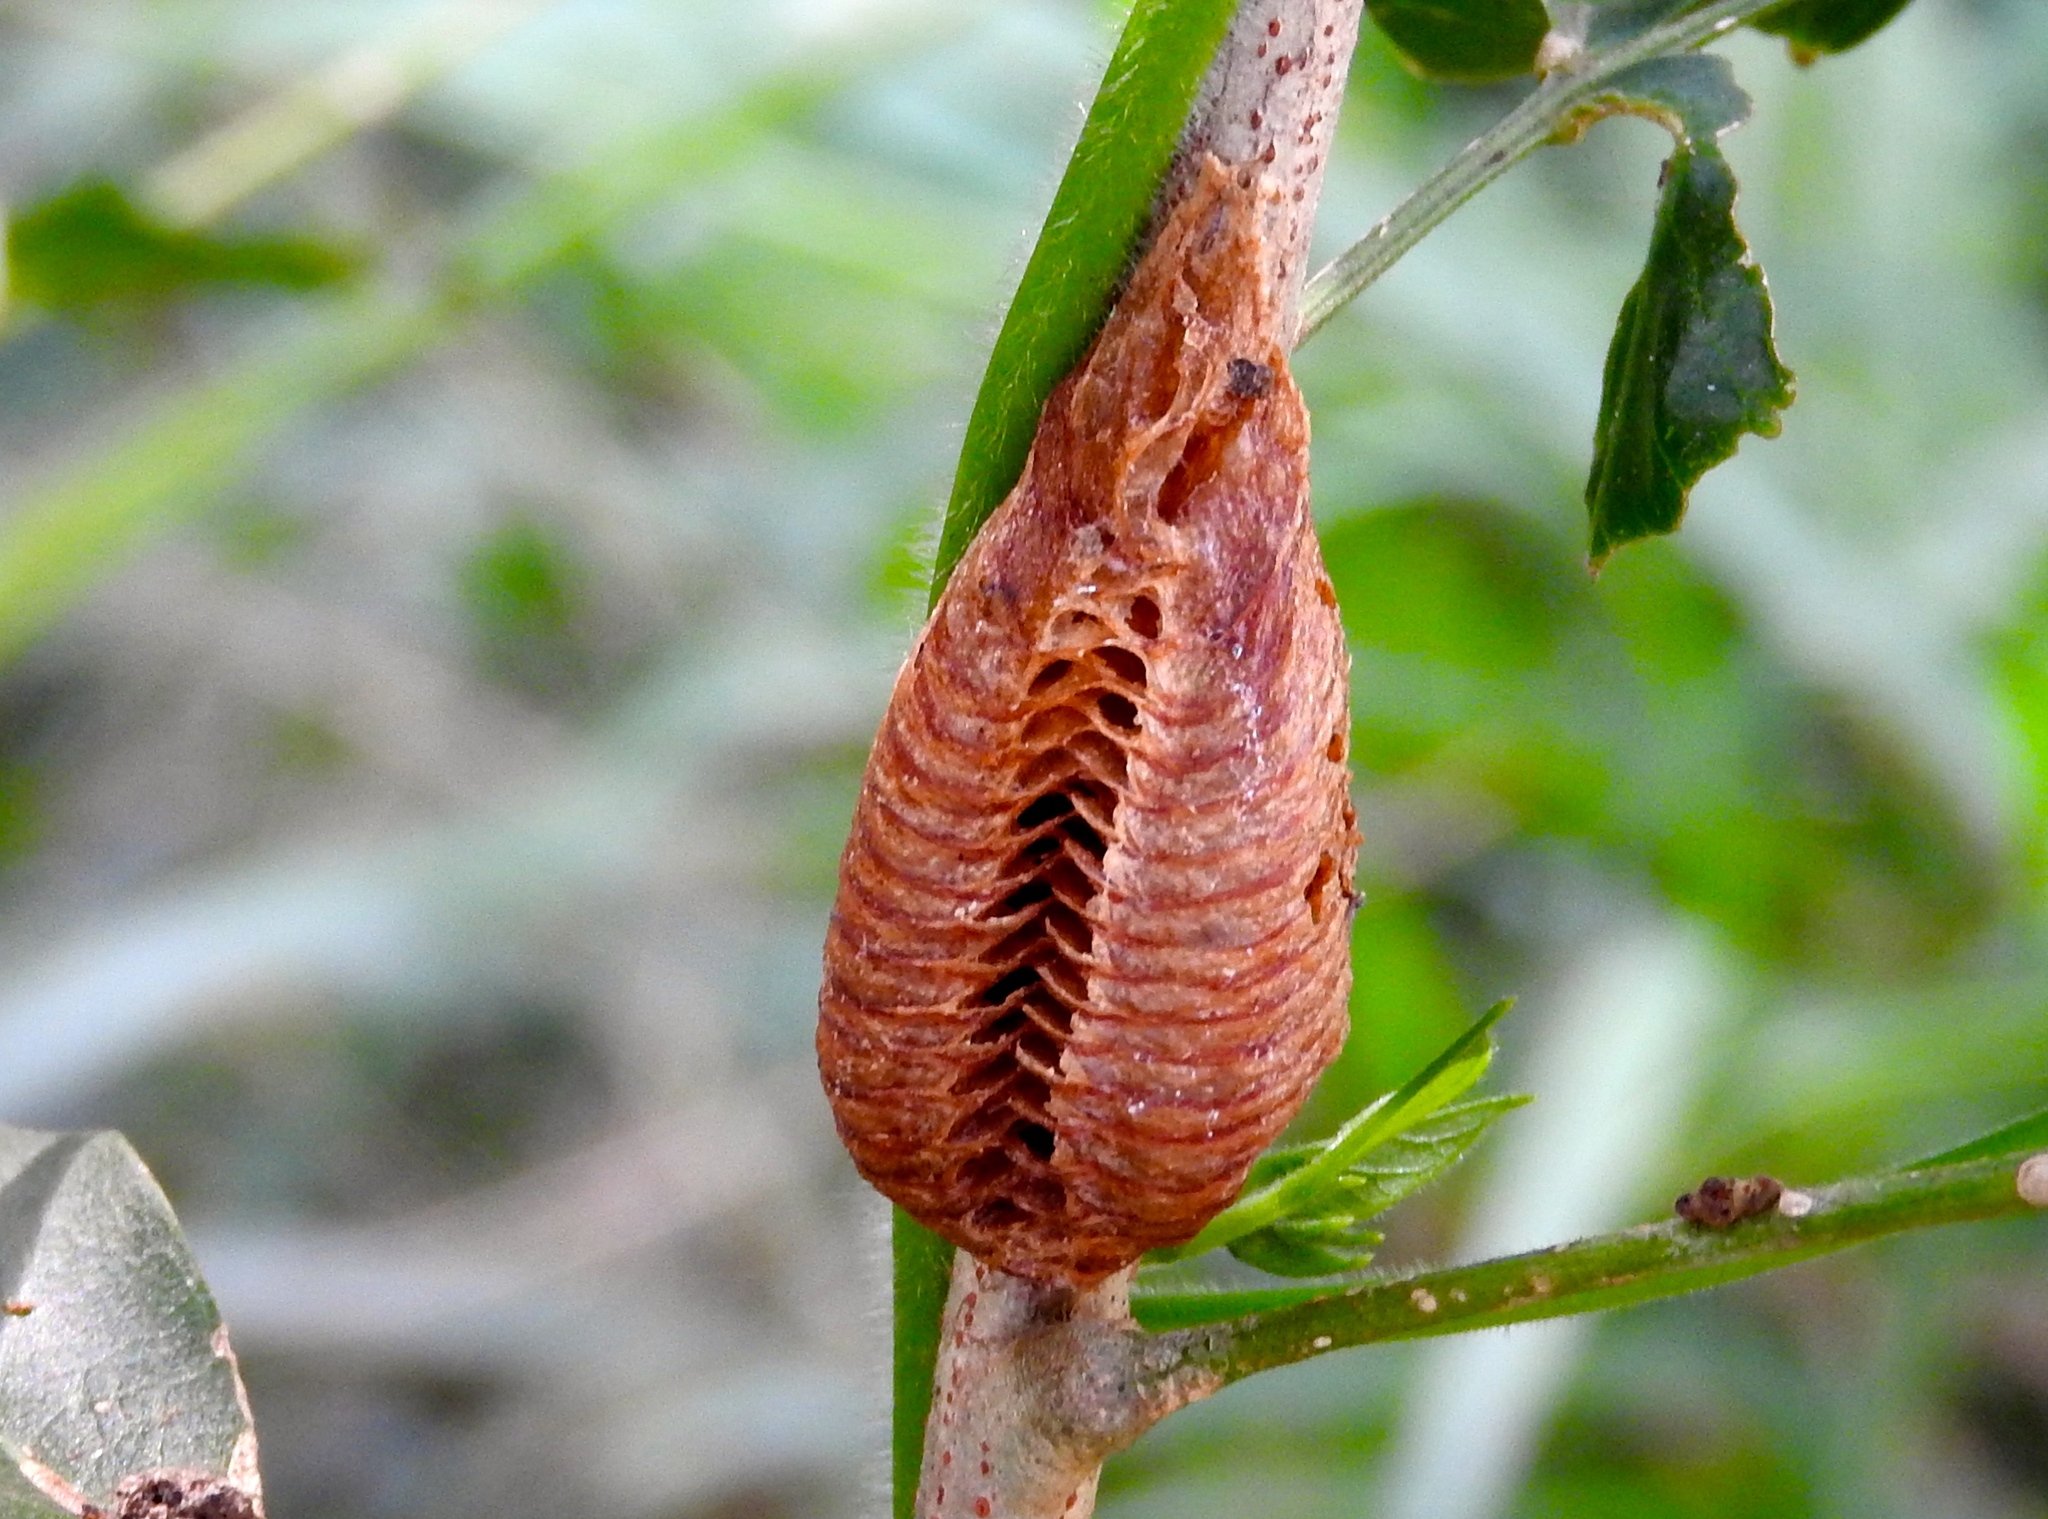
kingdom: Animalia
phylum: Arthropoda
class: Insecta
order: Mantodea
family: Mantidae
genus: Stagmomantis
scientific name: Stagmomantis limbata
